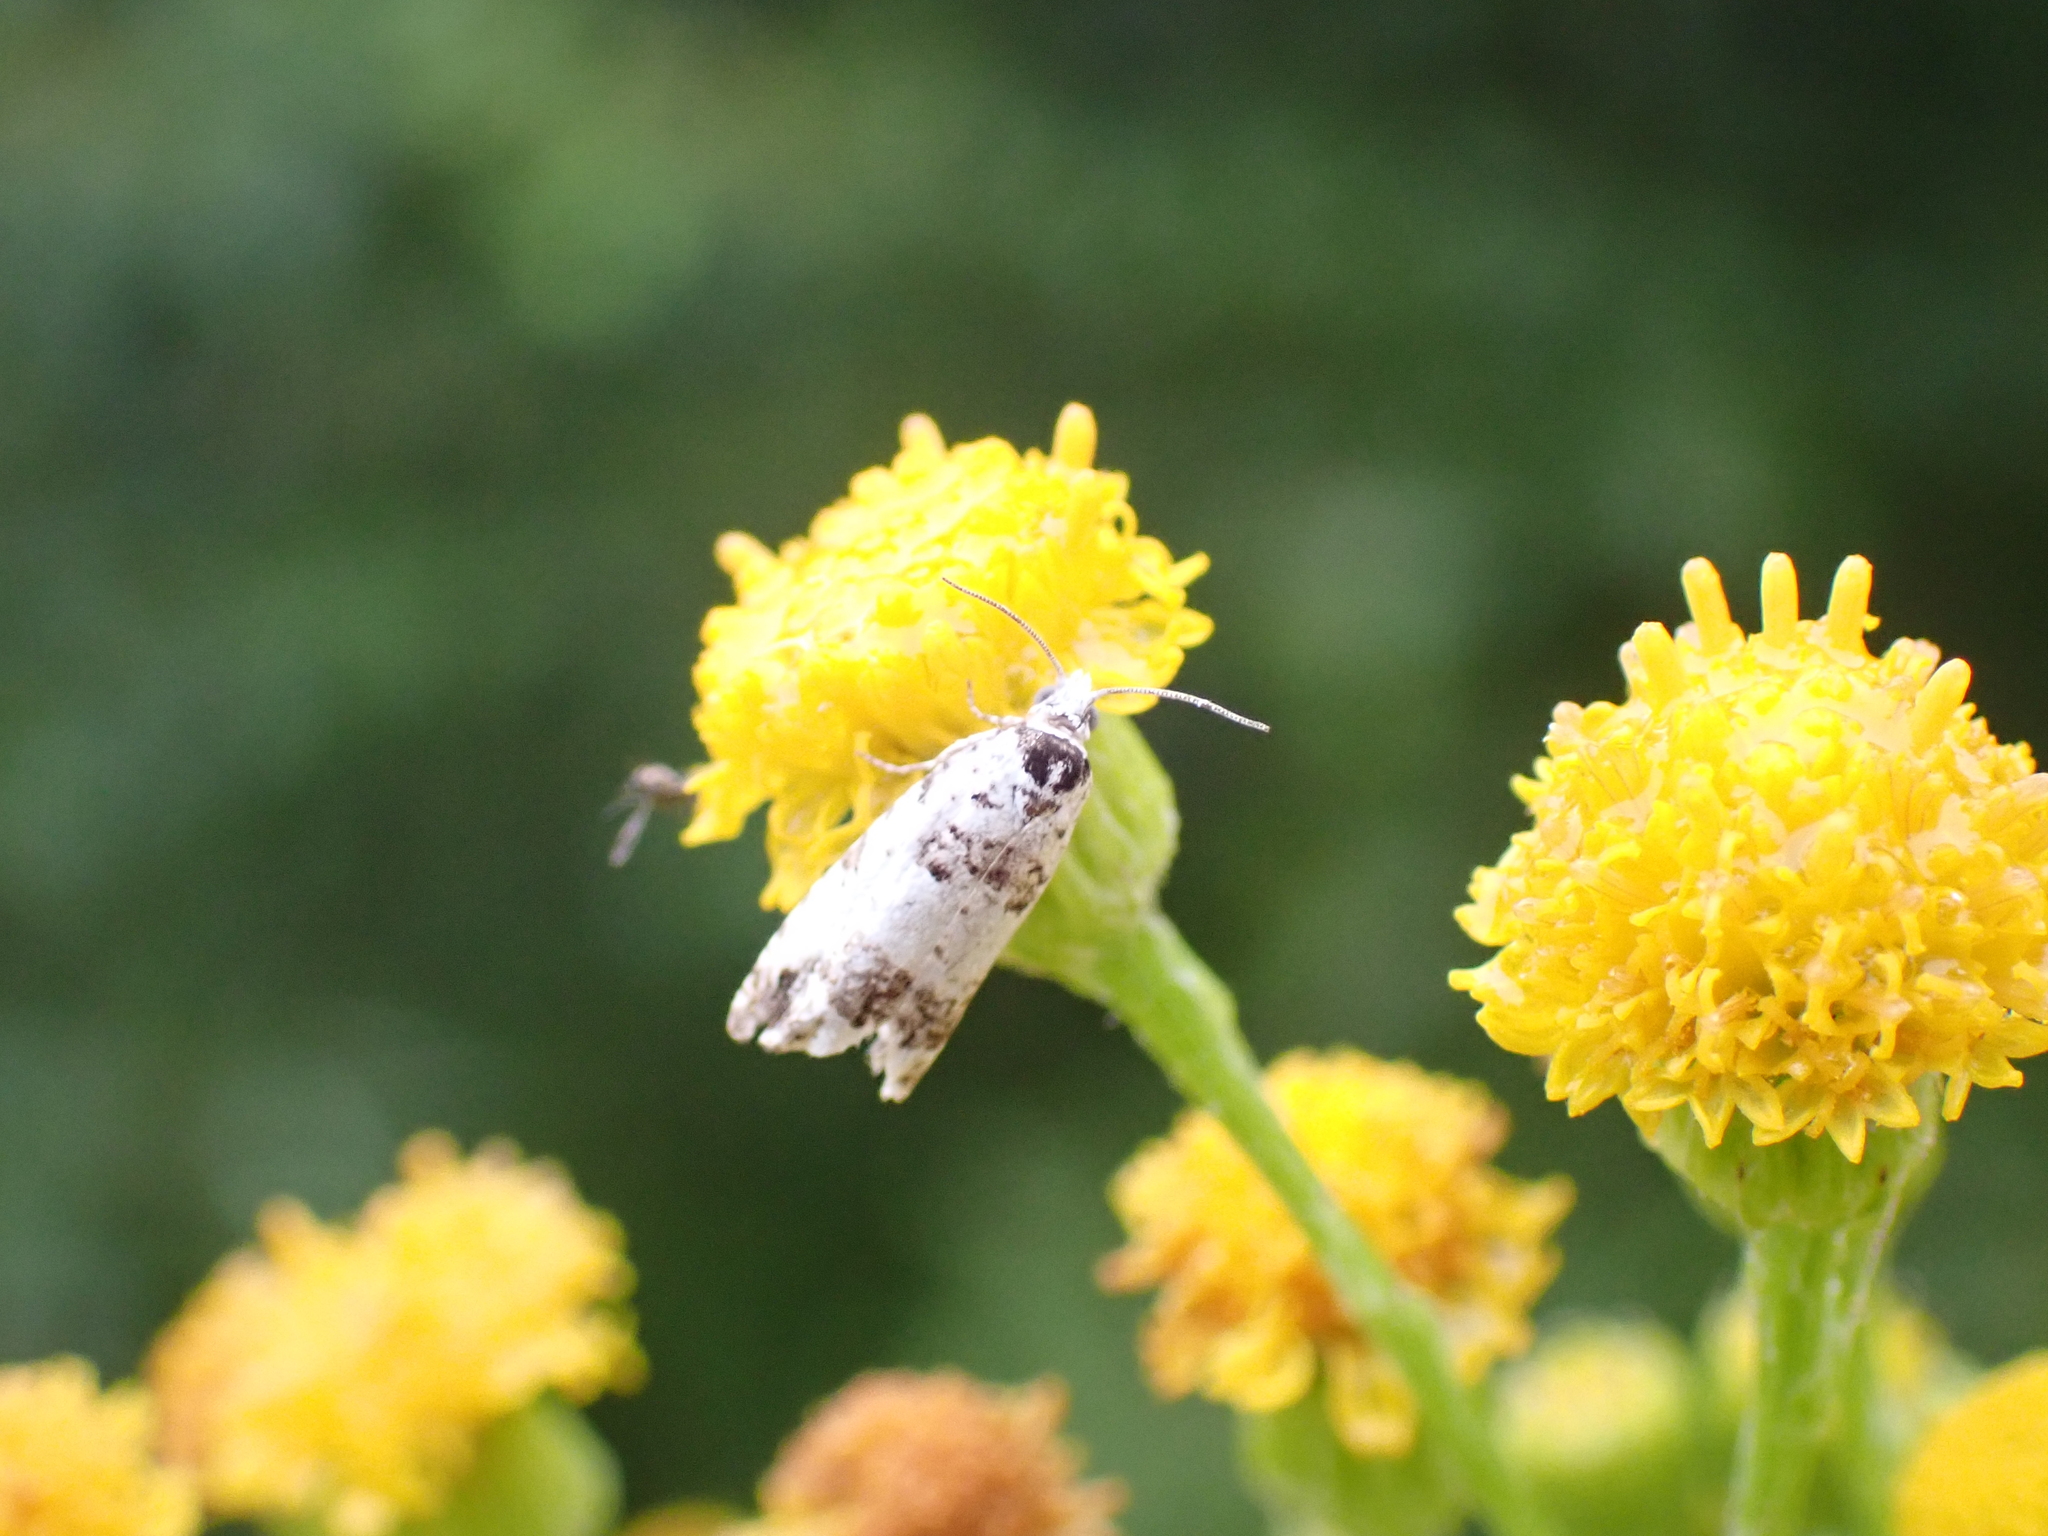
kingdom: Animalia
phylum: Arthropoda
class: Insecta
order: Lepidoptera
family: Tortricidae
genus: Eucosma
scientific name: Eucosma campoliliana
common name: Marbled bell
